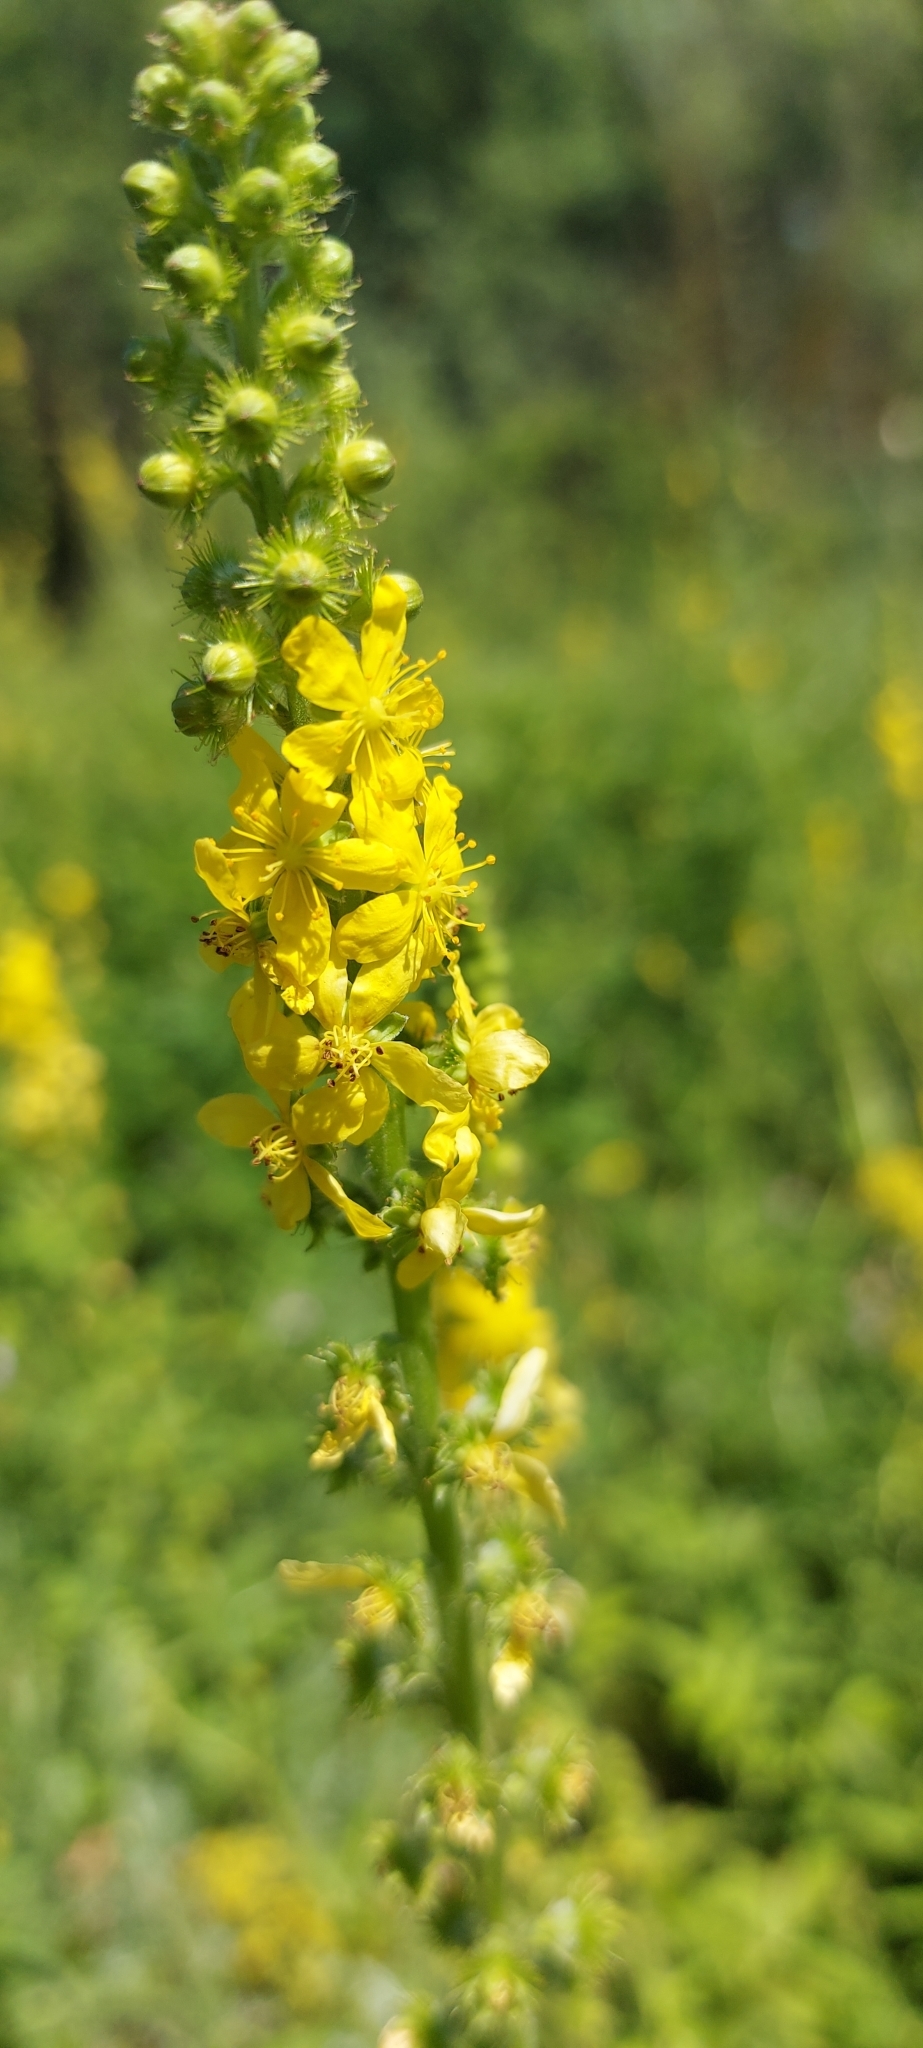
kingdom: Plantae
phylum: Tracheophyta
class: Magnoliopsida
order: Rosales
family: Rosaceae
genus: Agrimonia
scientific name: Agrimonia eupatoria
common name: Agrimony
